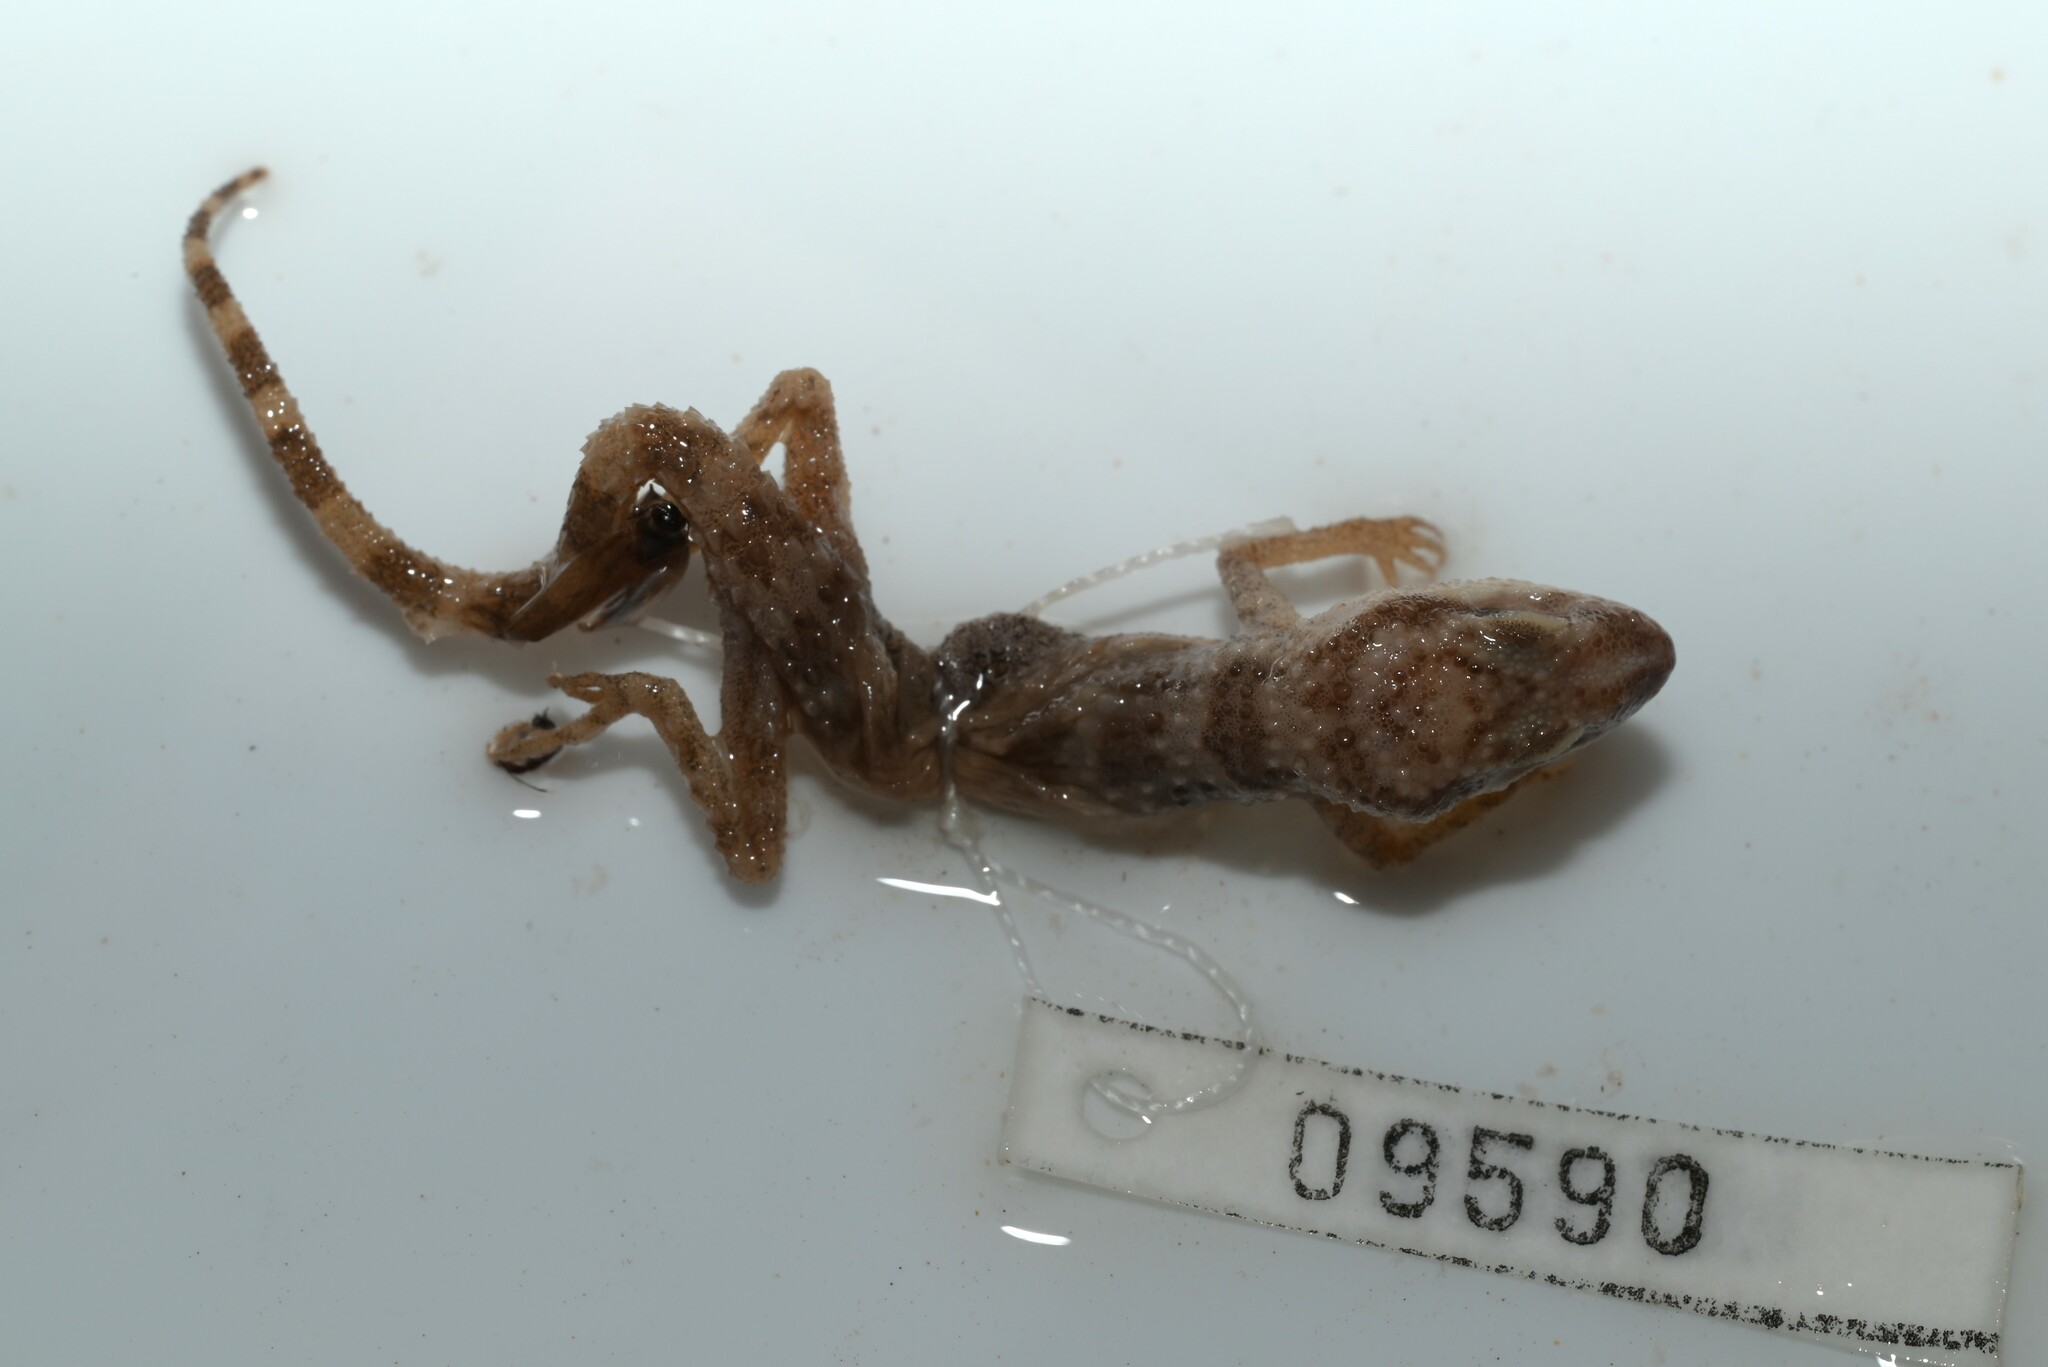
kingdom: Animalia
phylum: Chordata
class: Squamata
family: Gekkonidae
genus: Bunopus
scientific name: Bunopus tuberculatus
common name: Southern tuberculated gecko
